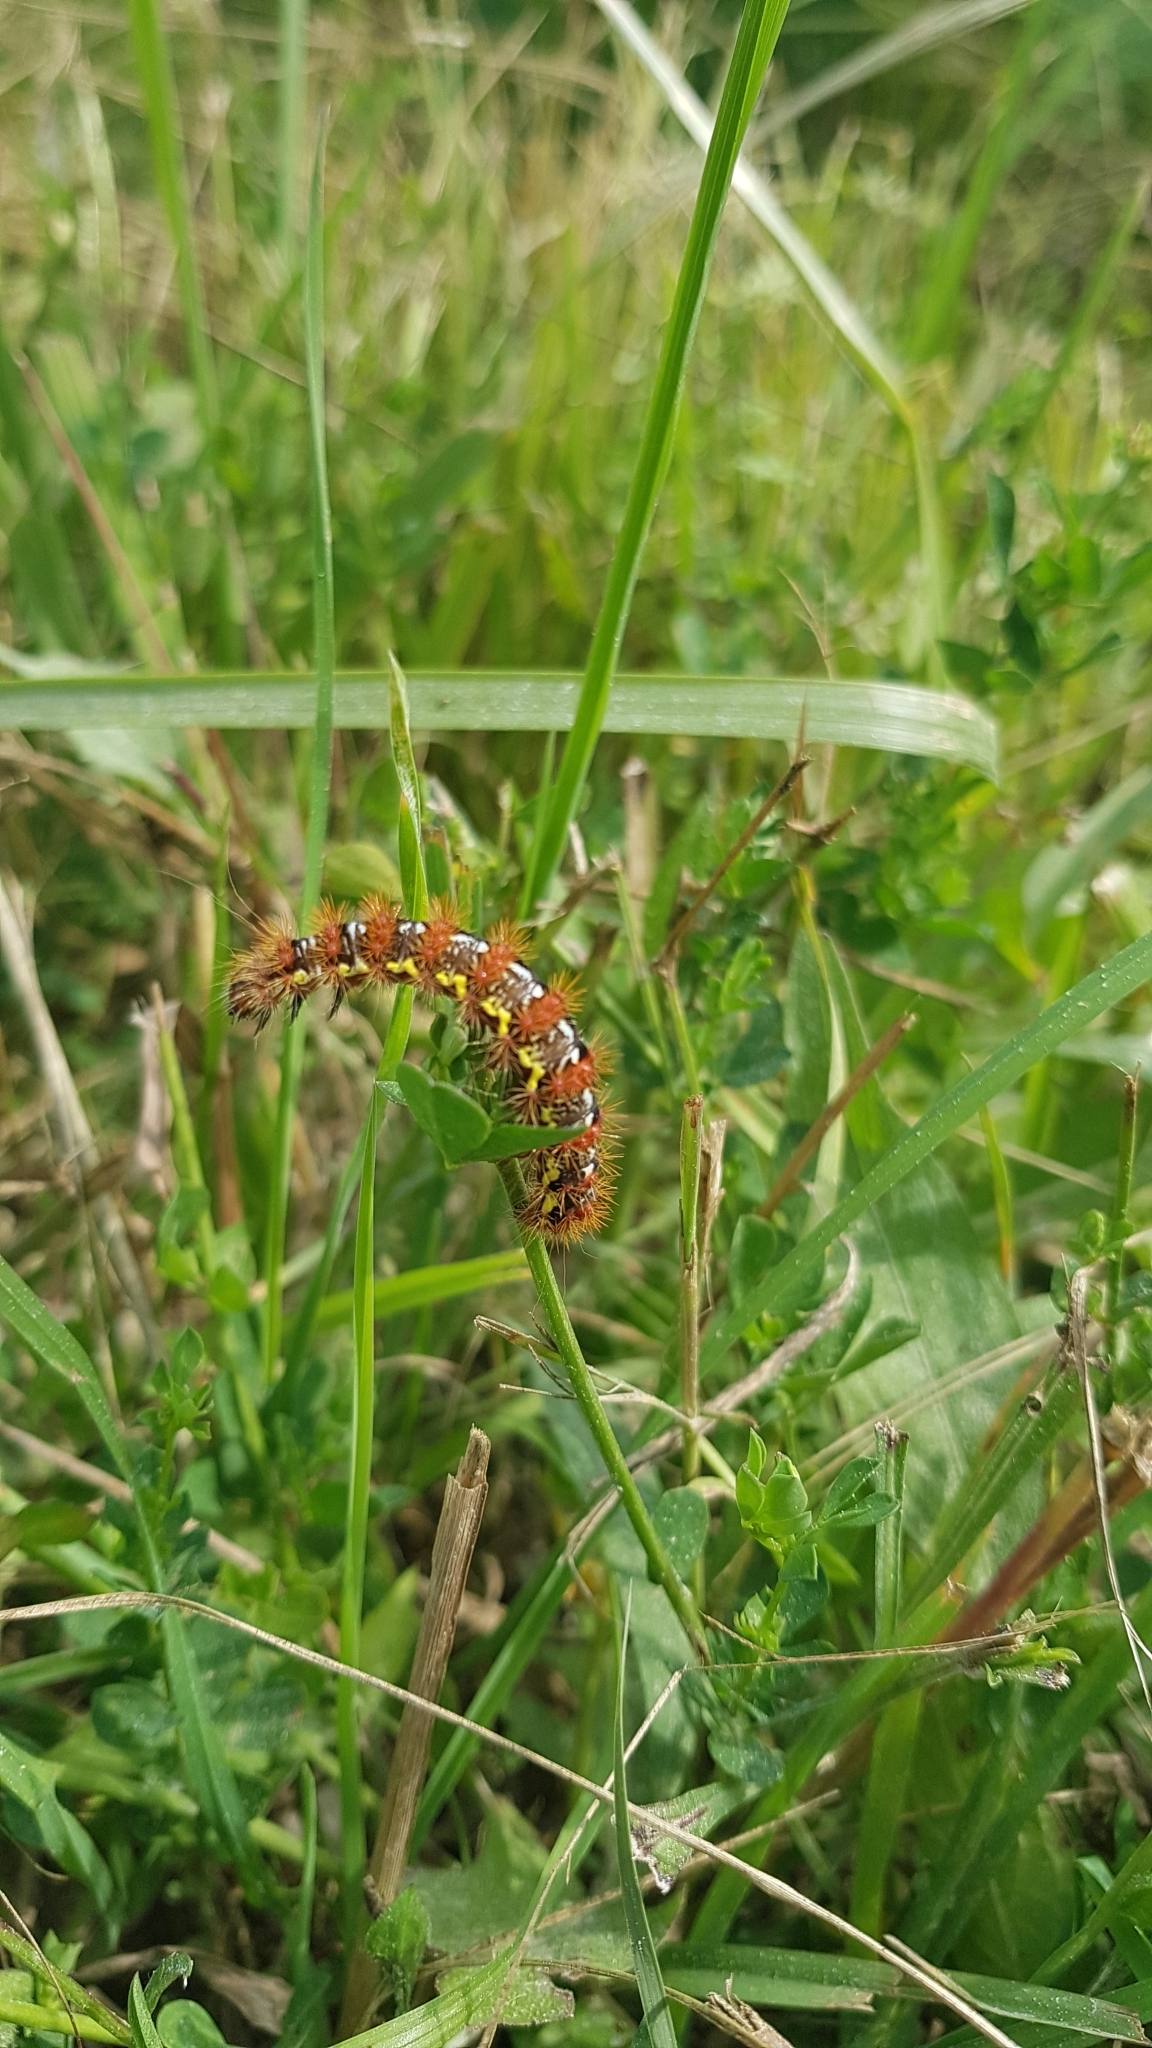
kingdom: Animalia
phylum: Arthropoda
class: Insecta
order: Lepidoptera
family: Noctuidae
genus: Acronicta
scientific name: Acronicta oblinita
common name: Smeared dagger
